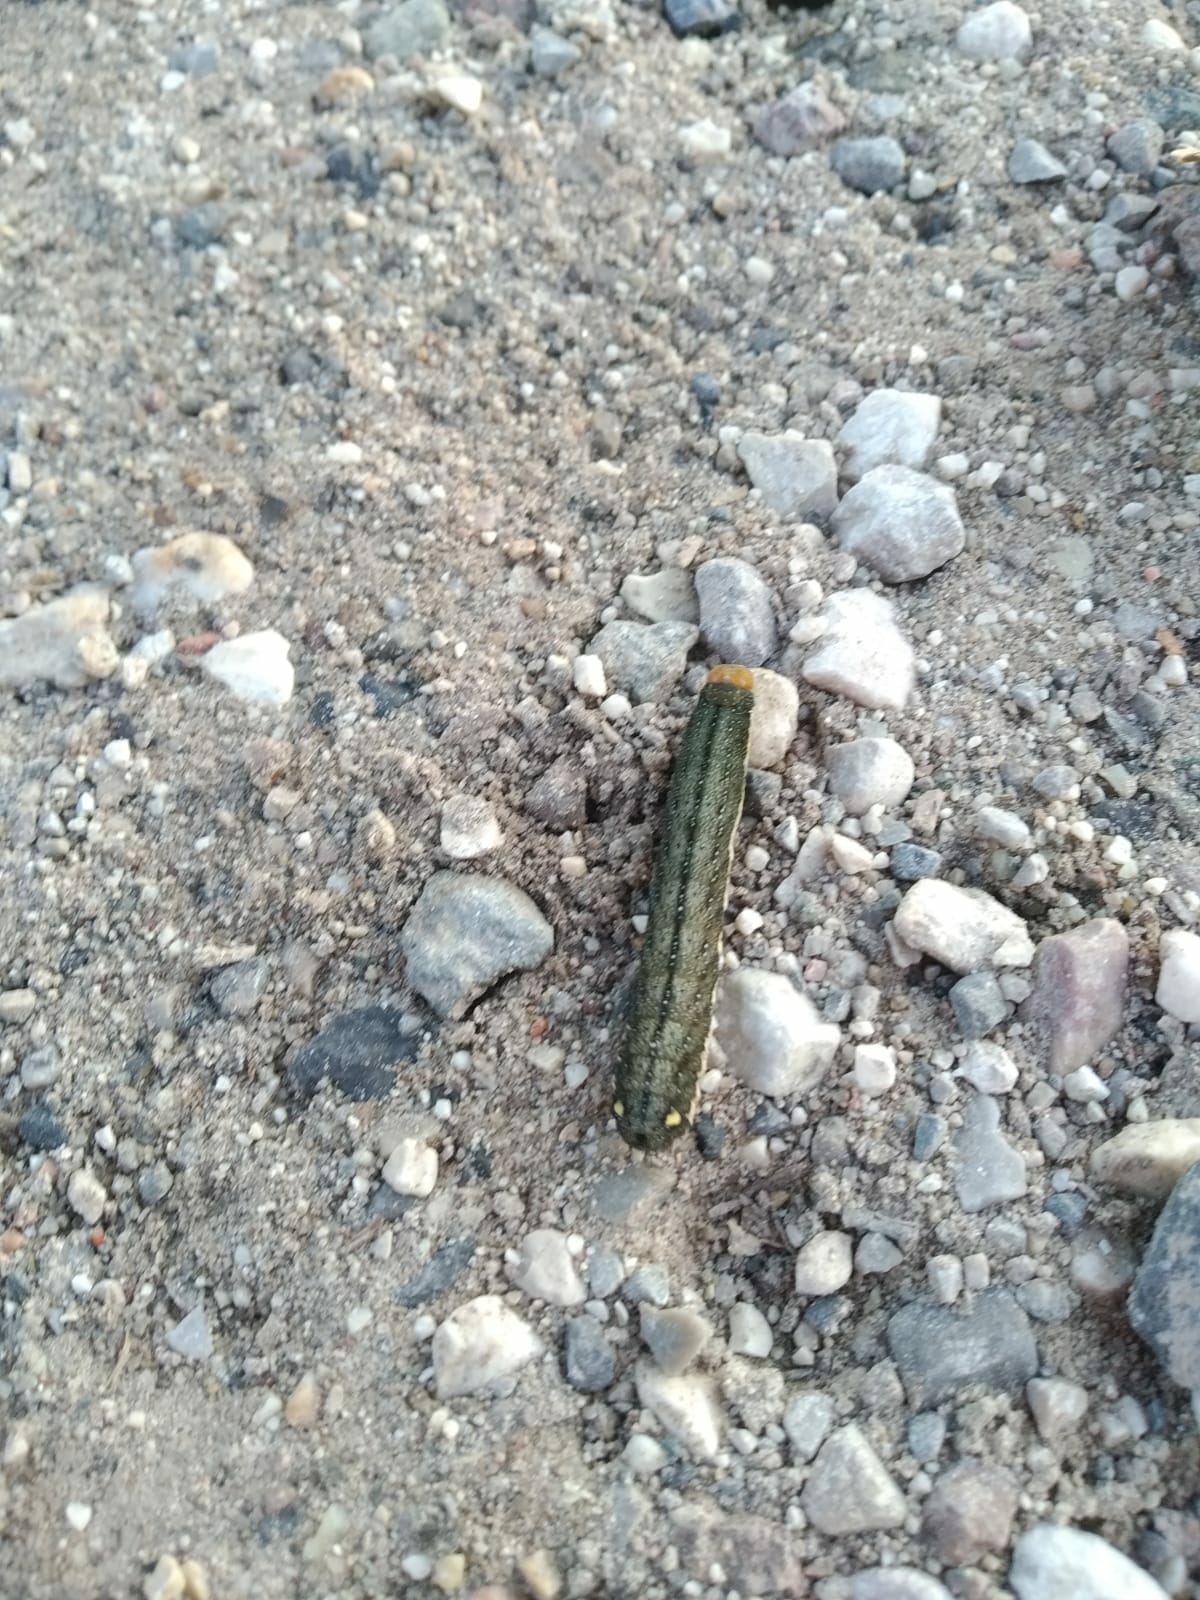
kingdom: Animalia
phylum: Arthropoda
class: Insecta
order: Lepidoptera
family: Noctuidae
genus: Trachea
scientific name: Trachea atriplicis
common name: Orache moth
